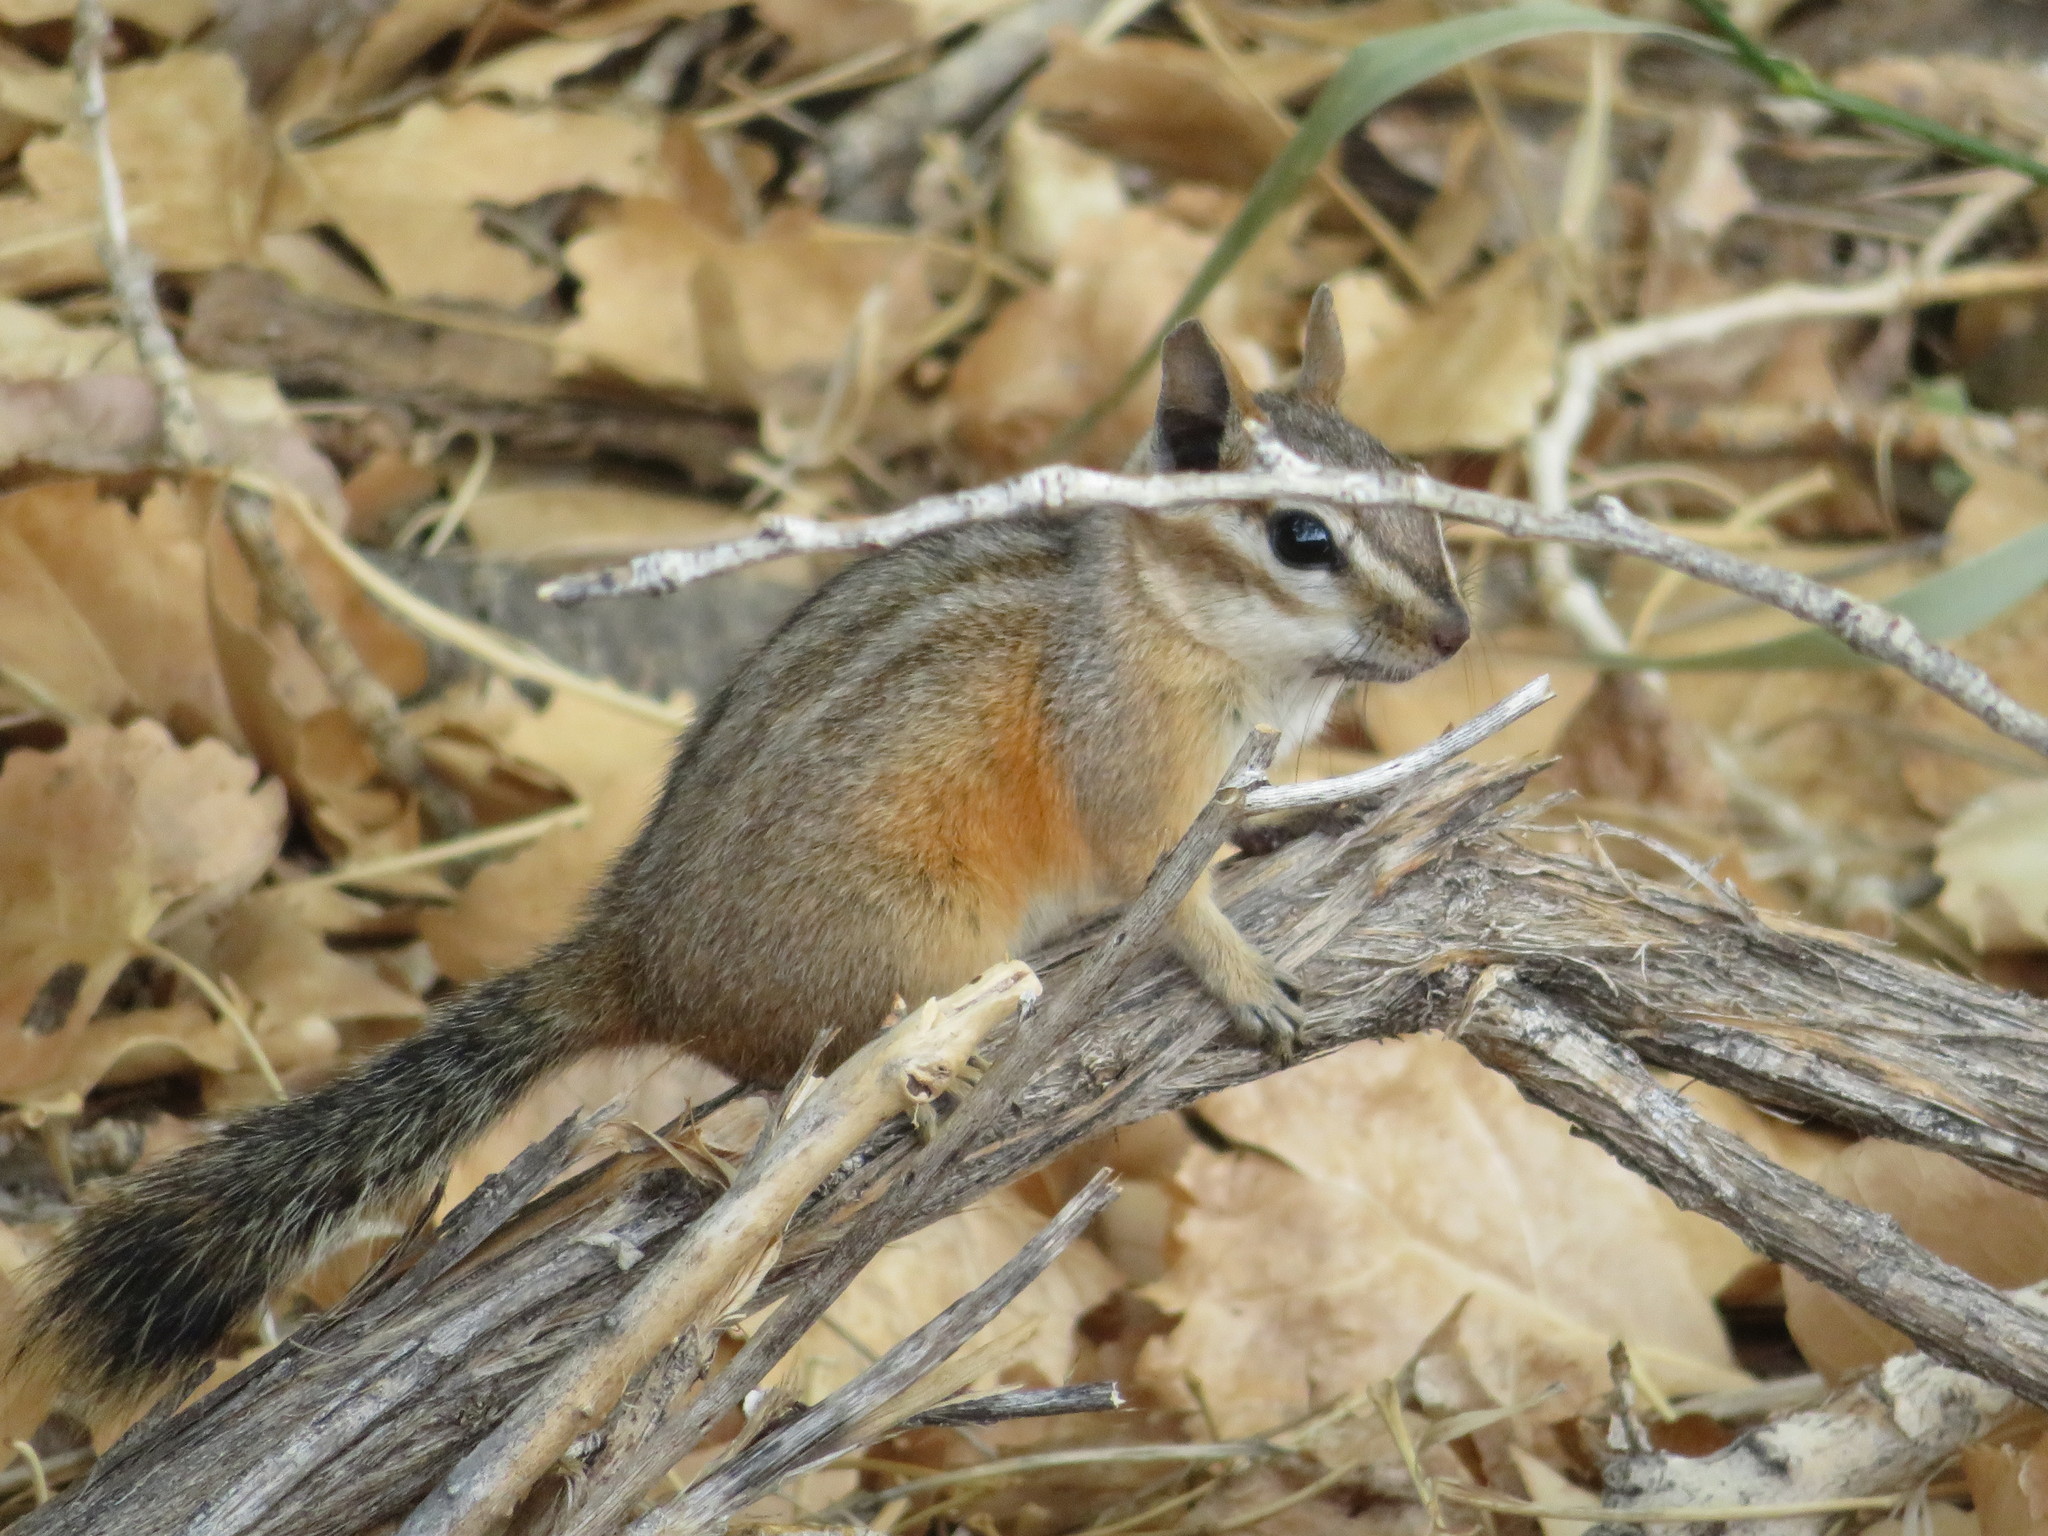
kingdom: Animalia
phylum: Chordata
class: Mammalia
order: Rodentia
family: Sciuridae
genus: Tamias
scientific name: Tamias dorsalis
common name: Cliff chipmunk
